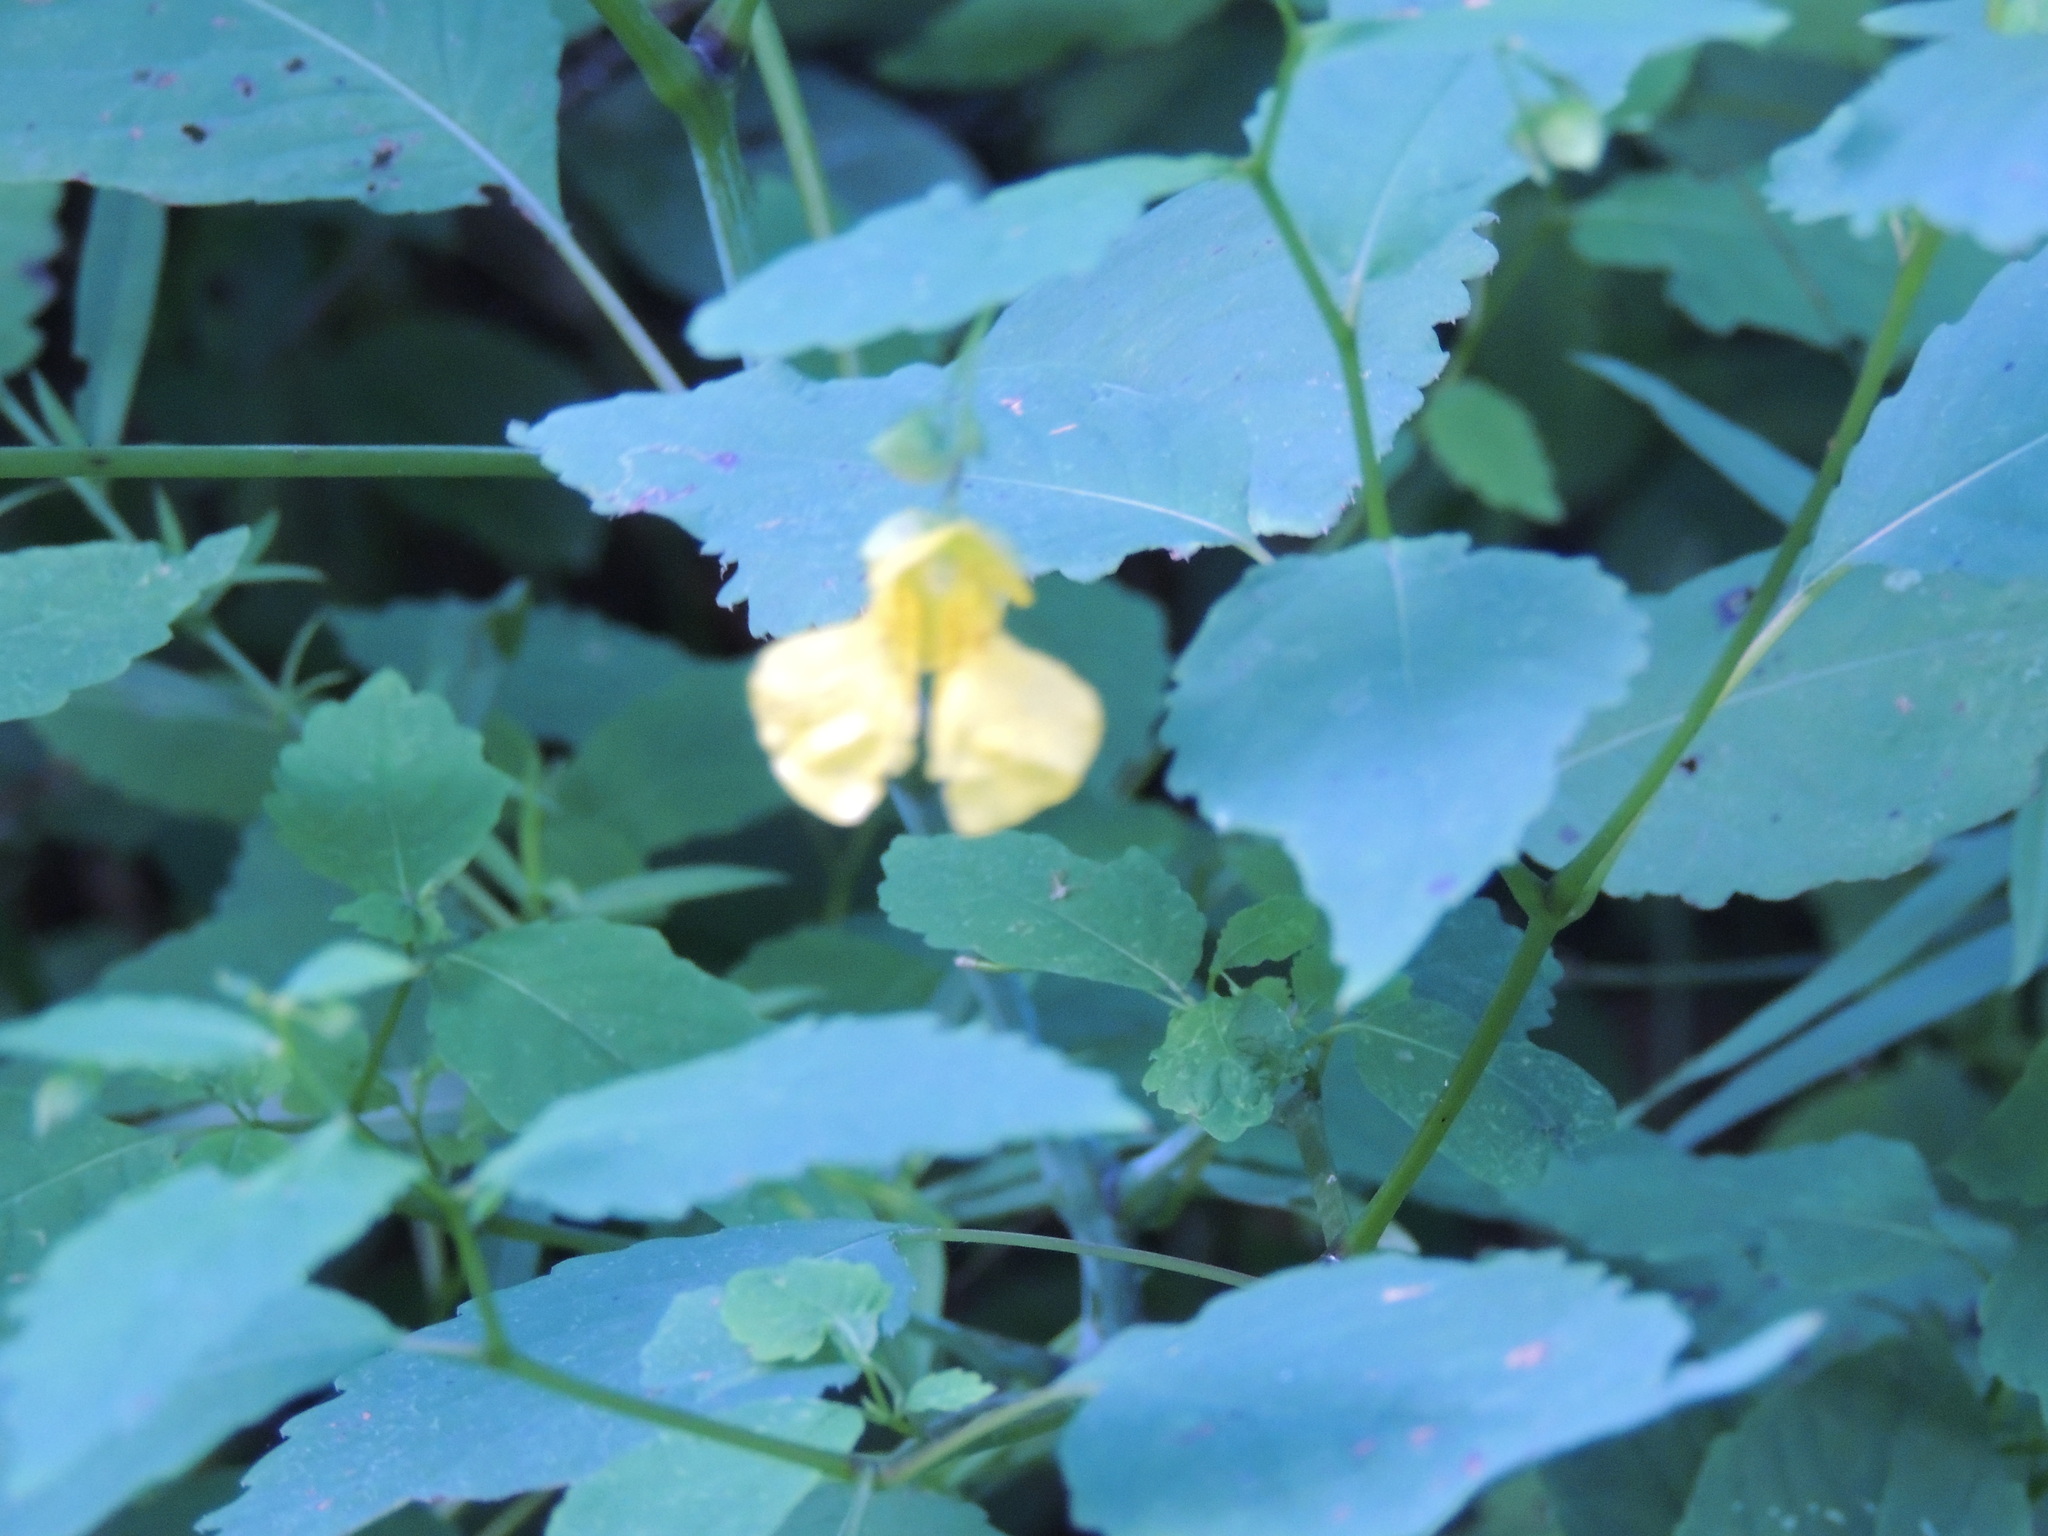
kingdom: Plantae
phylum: Tracheophyta
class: Magnoliopsida
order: Ericales
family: Balsaminaceae
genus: Impatiens
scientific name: Impatiens pallida
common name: Pale snapweed
